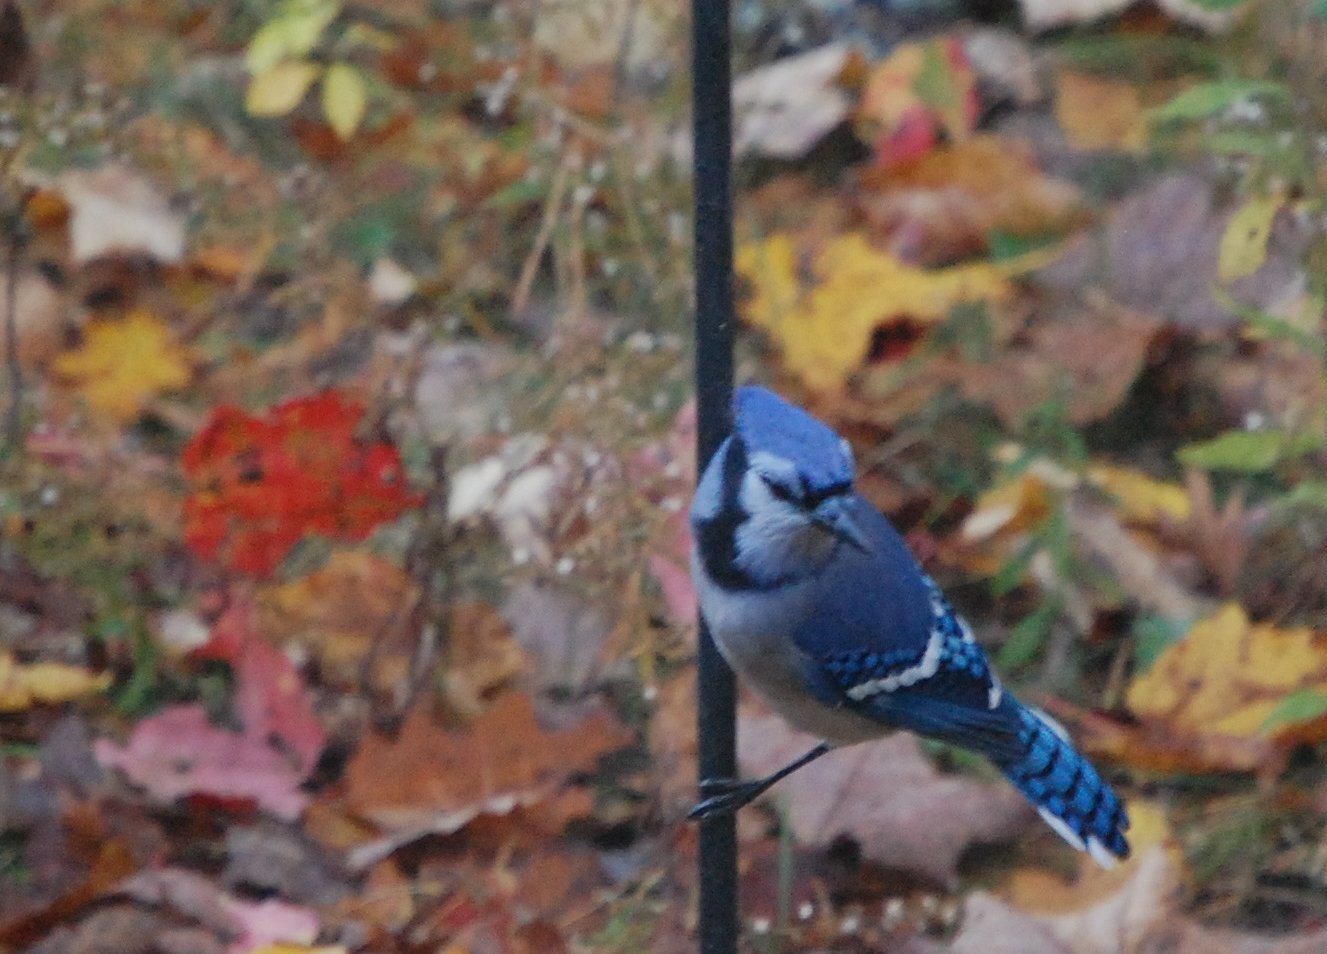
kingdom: Animalia
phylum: Chordata
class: Aves
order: Passeriformes
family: Corvidae
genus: Cyanocitta
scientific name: Cyanocitta cristata
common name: Blue jay
